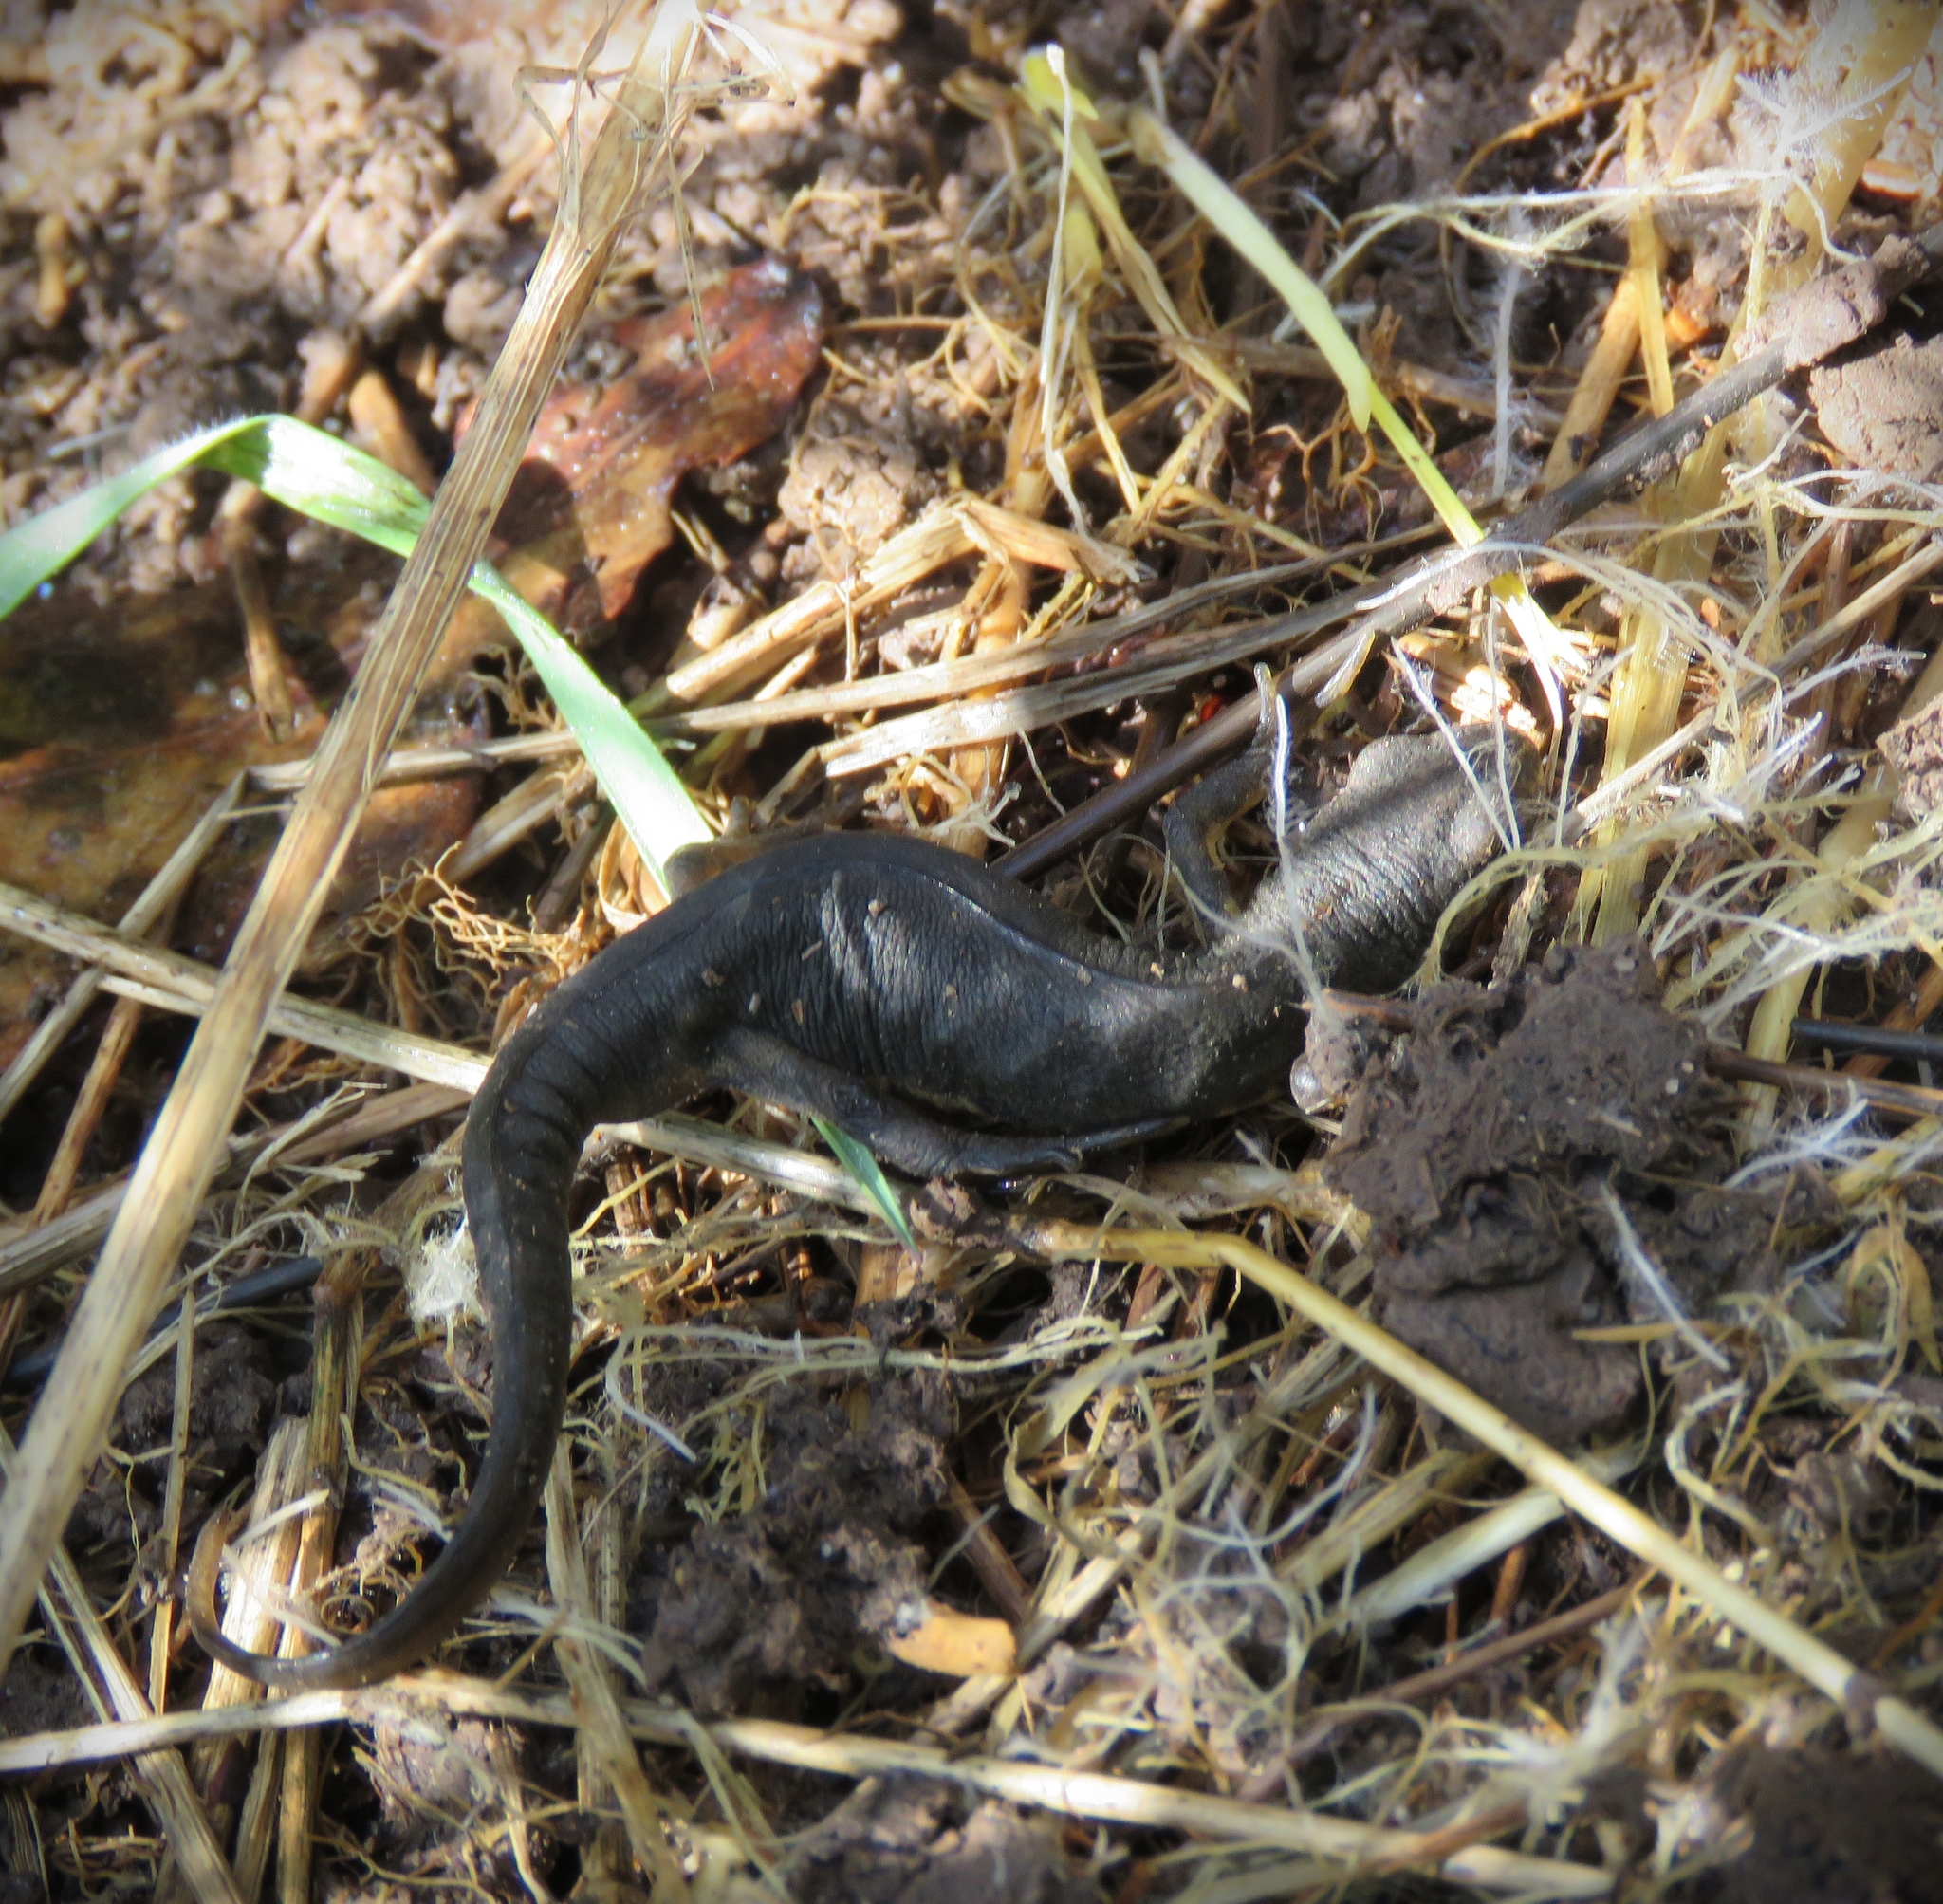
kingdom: Animalia
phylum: Chordata
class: Amphibia
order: Caudata
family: Salamandridae
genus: Lissotriton
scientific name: Lissotriton vulgaris
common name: Smooth newt
